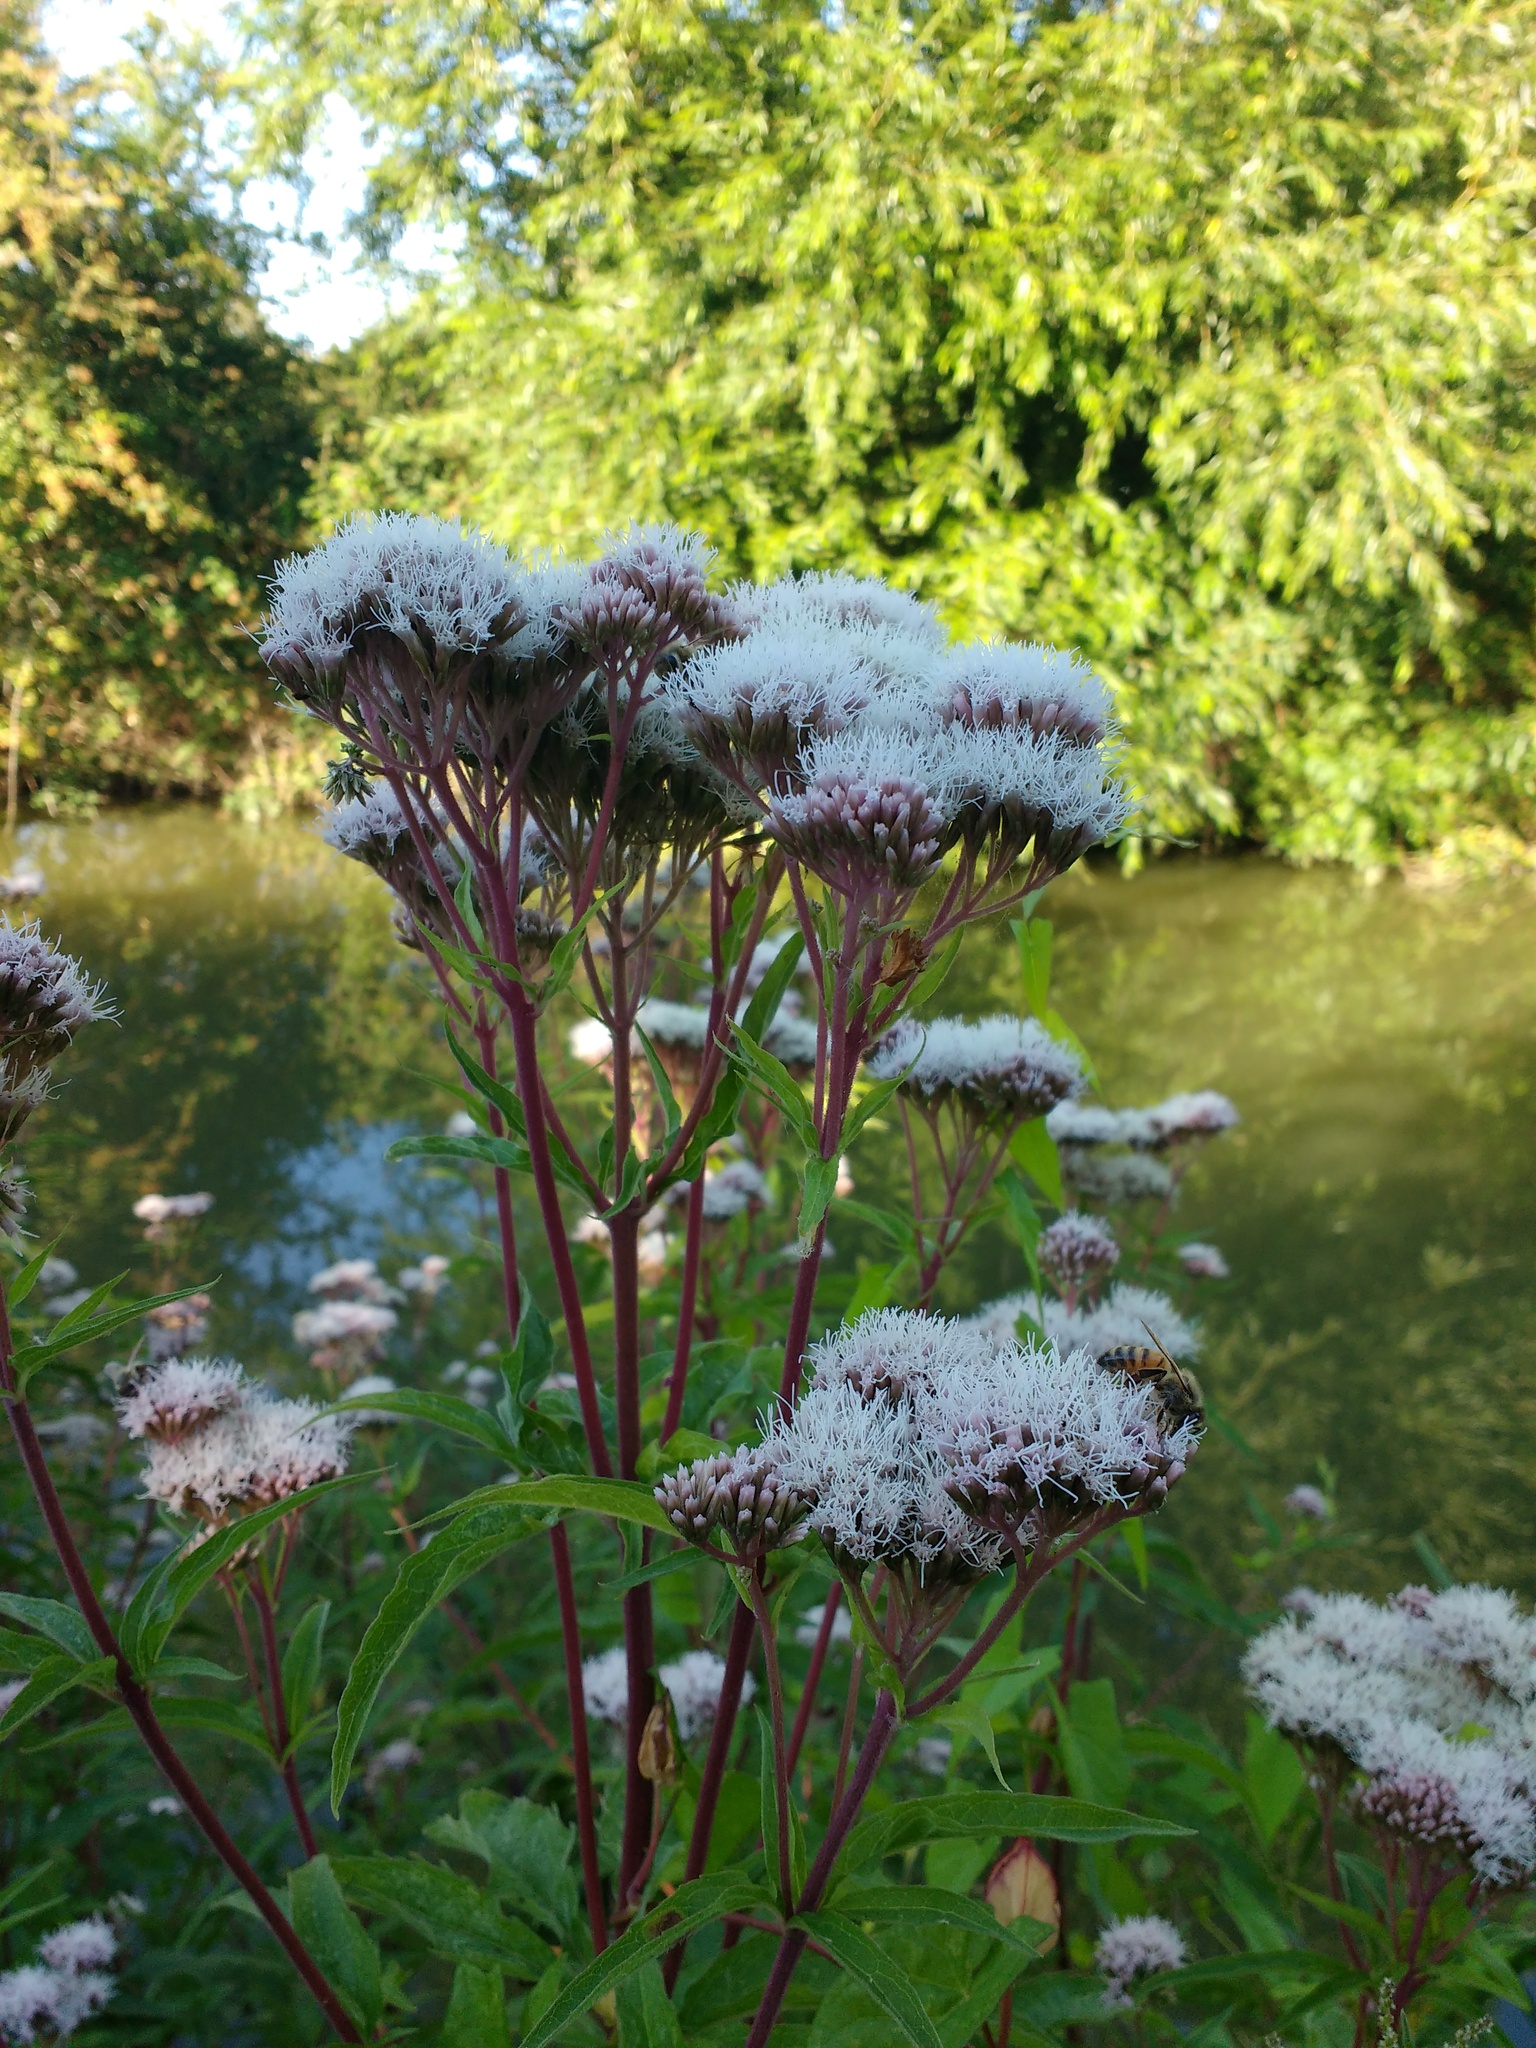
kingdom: Plantae
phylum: Tracheophyta
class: Magnoliopsida
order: Asterales
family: Asteraceae
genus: Eupatorium
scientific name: Eupatorium cannabinum
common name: Hemp-agrimony
